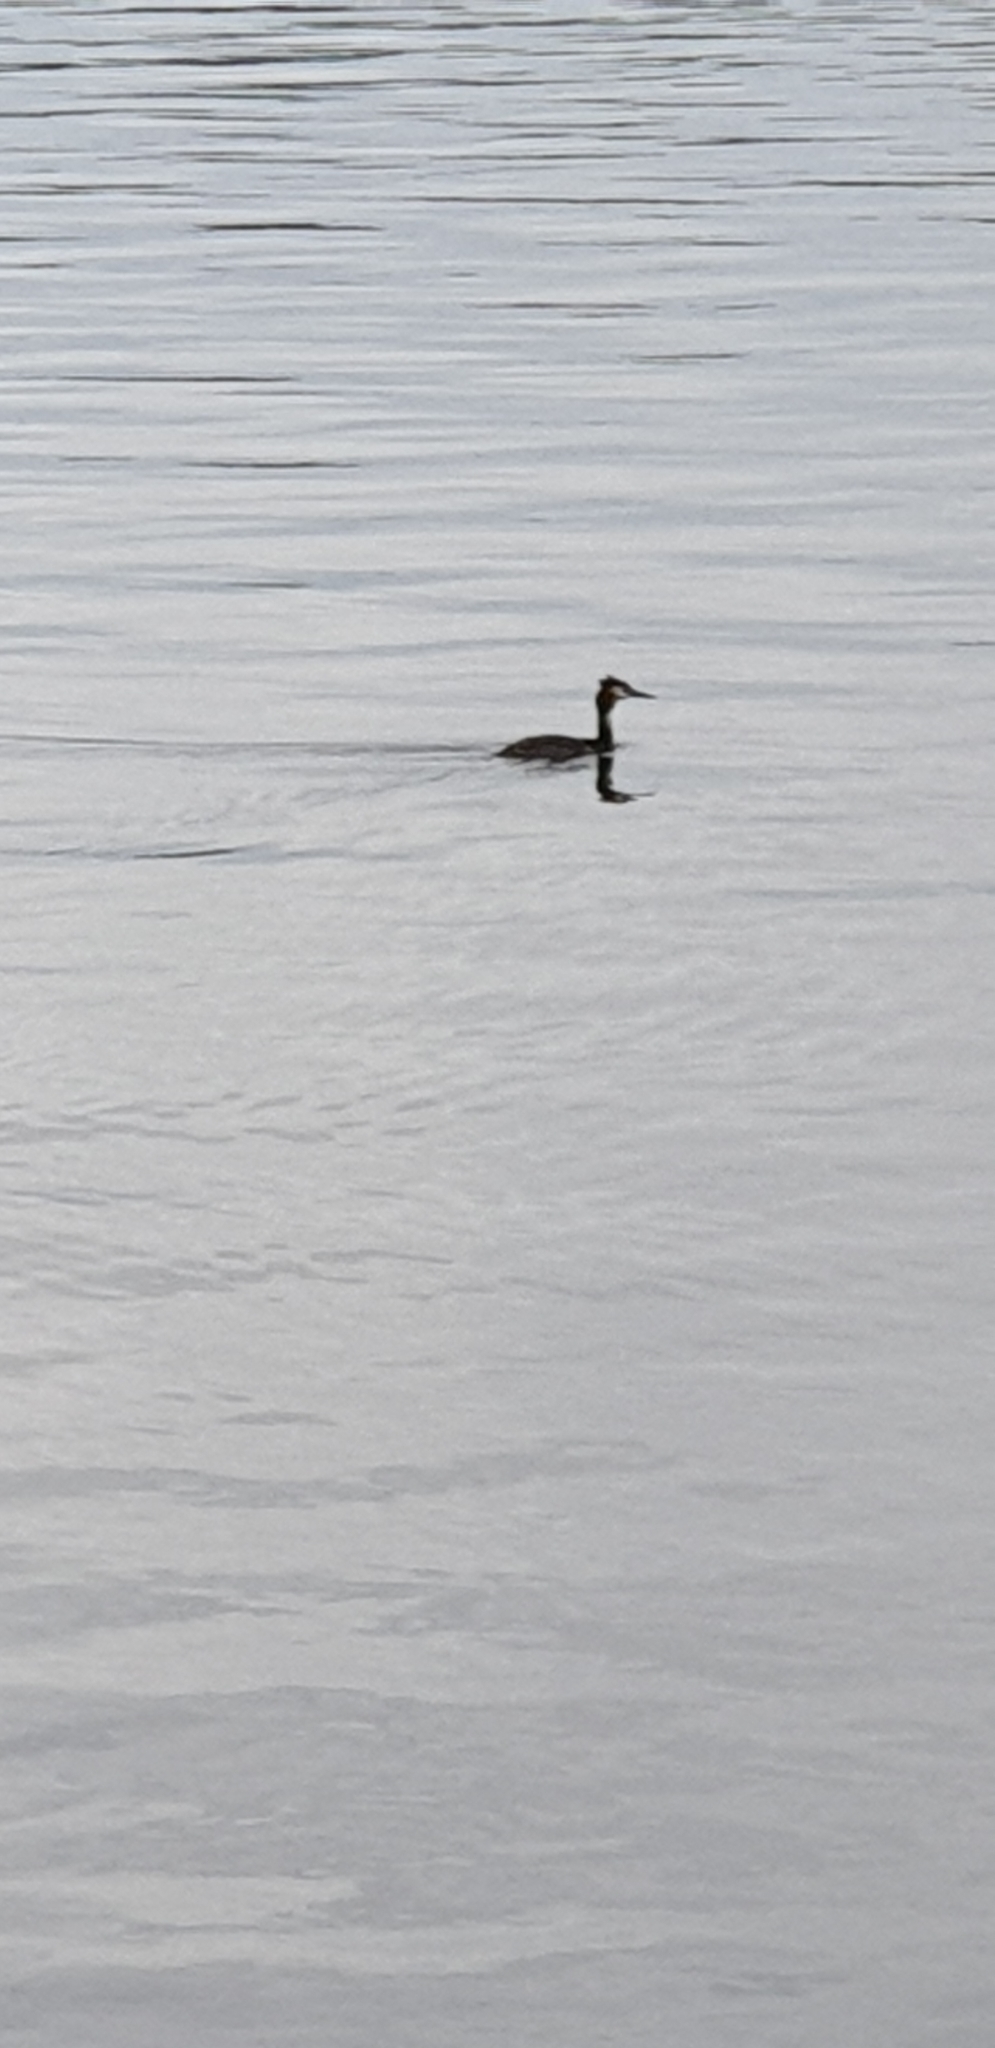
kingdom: Animalia
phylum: Chordata
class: Aves
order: Podicipediformes
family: Podicipedidae
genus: Podiceps
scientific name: Podiceps cristatus
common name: Great crested grebe
